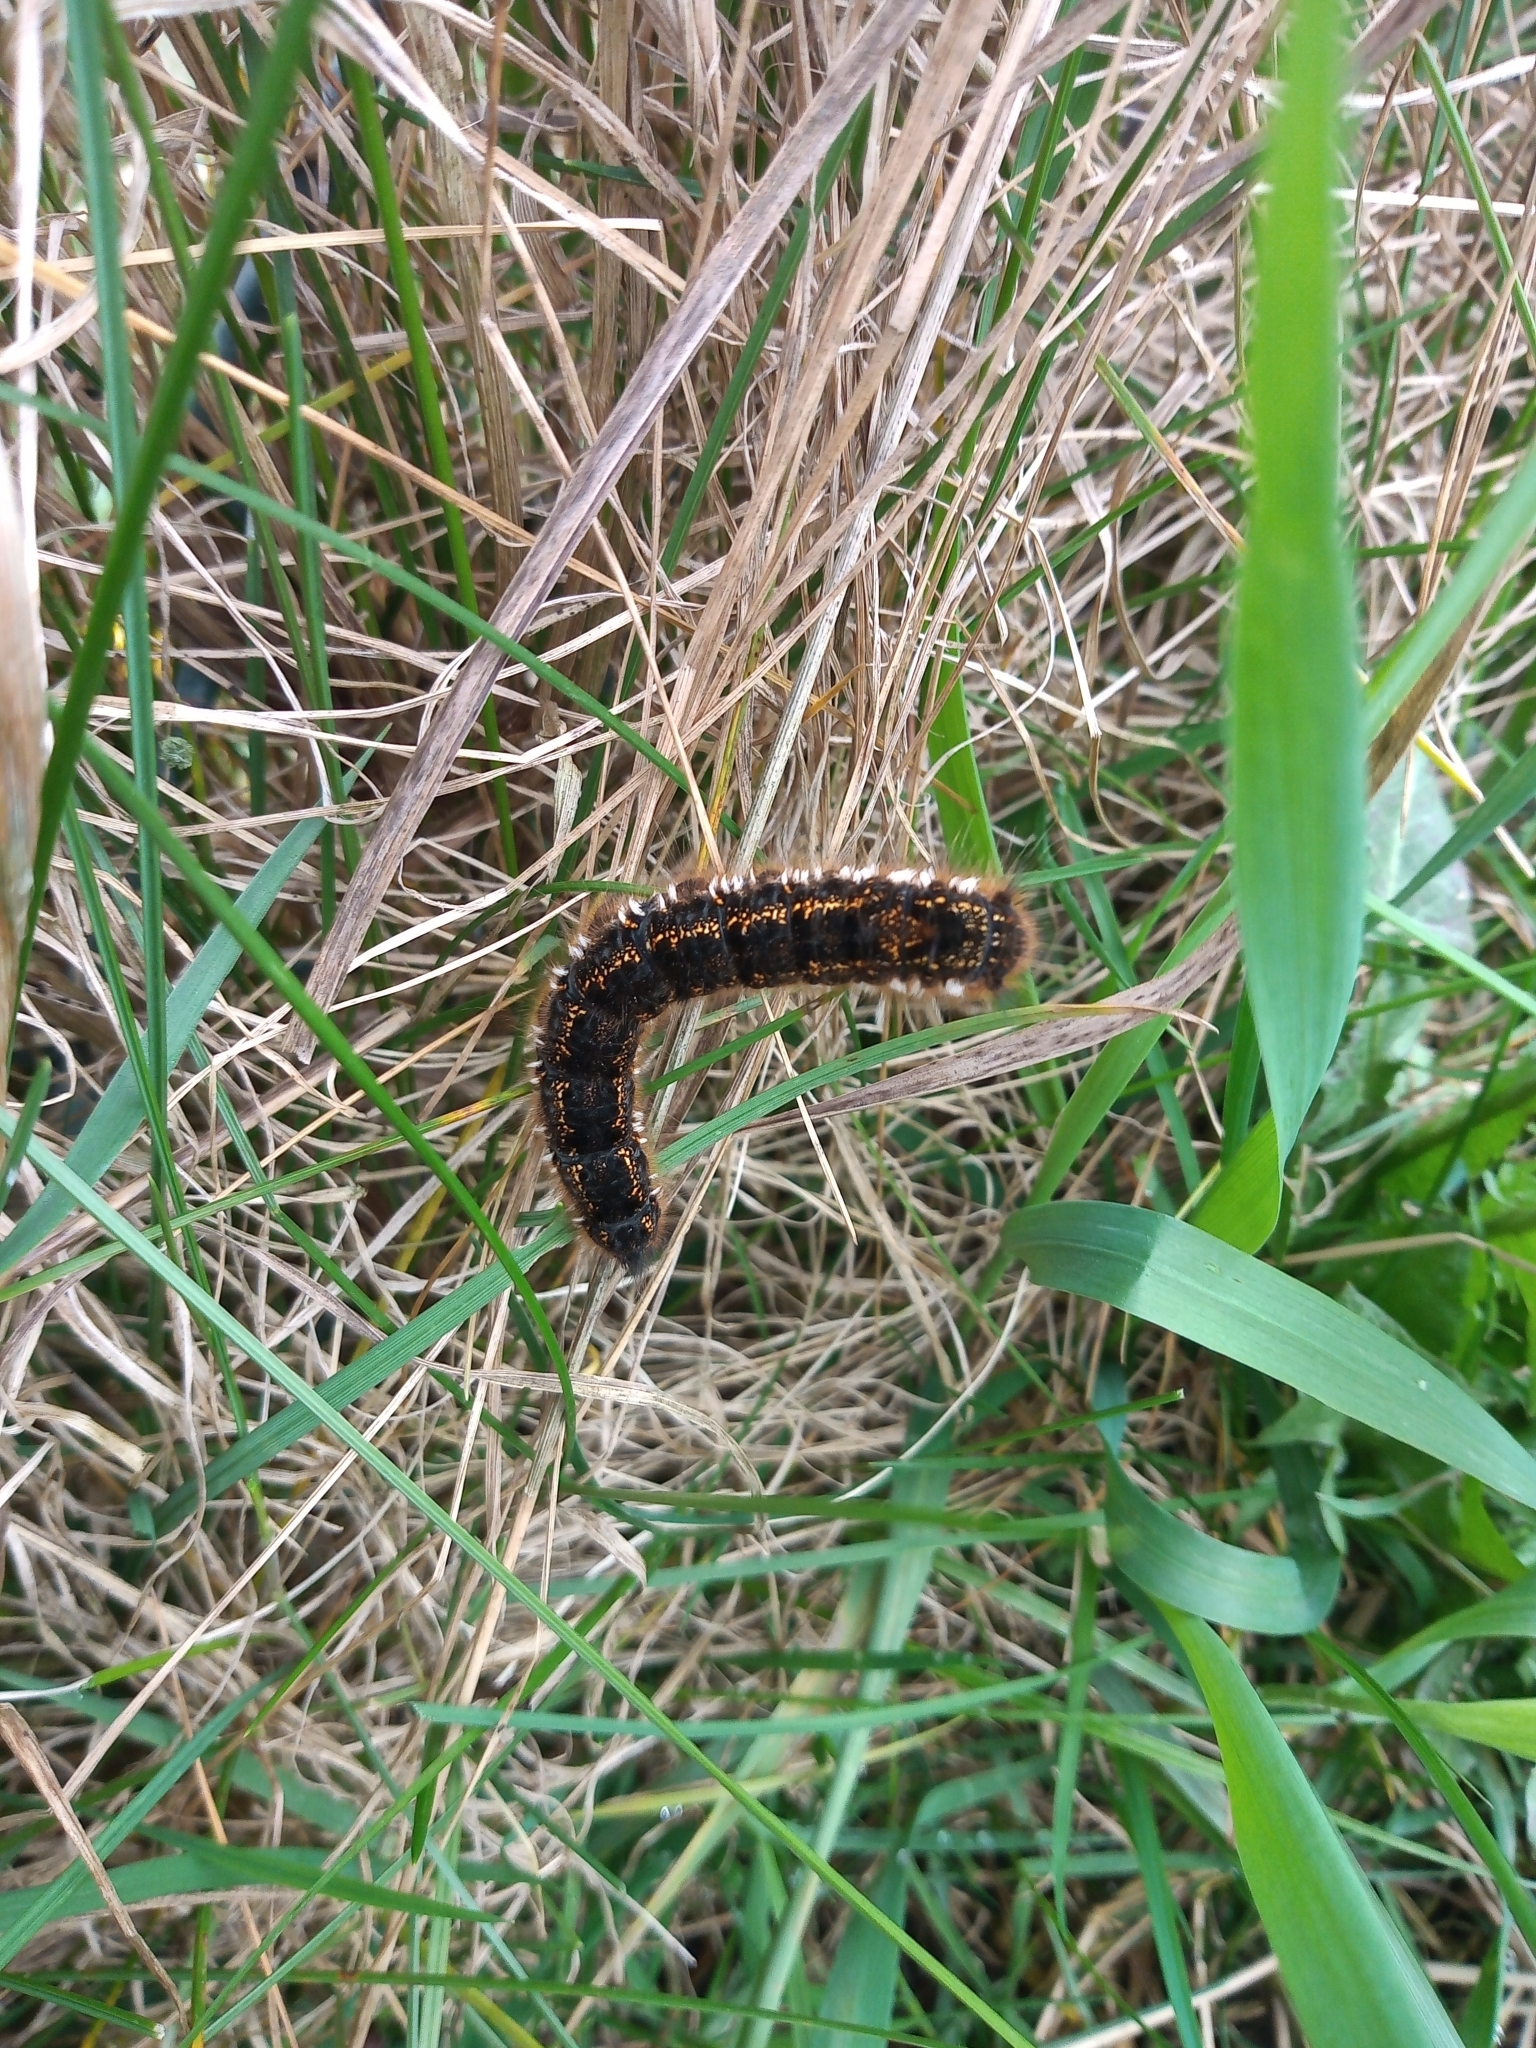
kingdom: Animalia
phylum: Arthropoda
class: Insecta
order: Lepidoptera
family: Lasiocampidae
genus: Euthrix
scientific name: Euthrix potatoria
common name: Drinker
